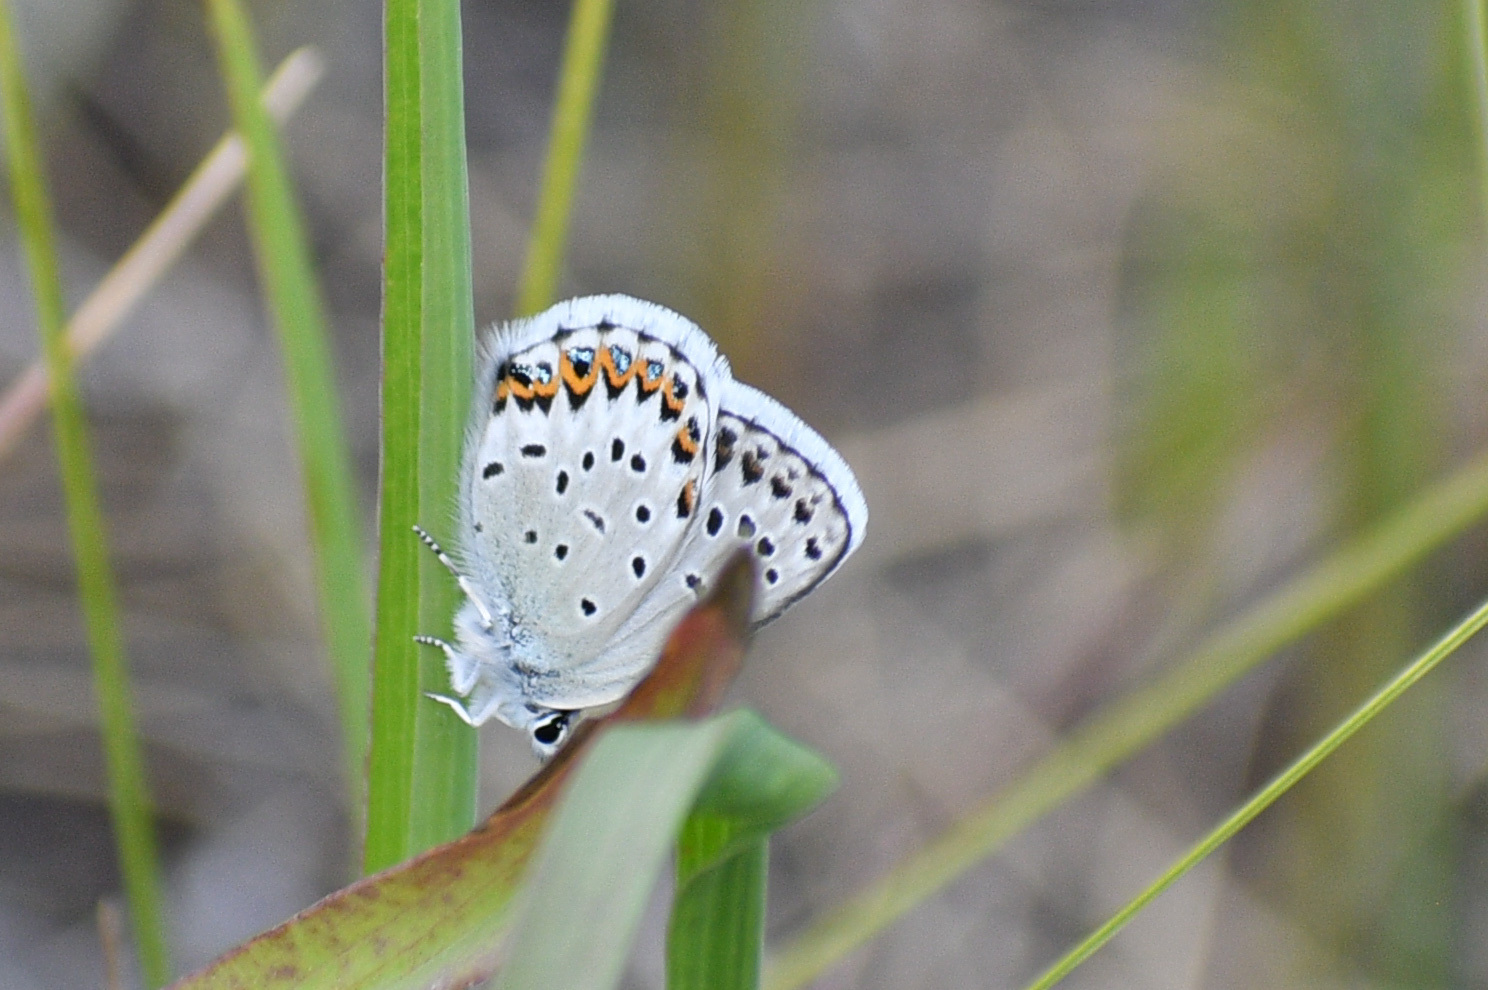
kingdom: Animalia
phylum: Arthropoda
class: Insecta
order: Lepidoptera
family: Lycaenidae
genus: Lycaeides
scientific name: Lycaeides idas
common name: Northern blue
